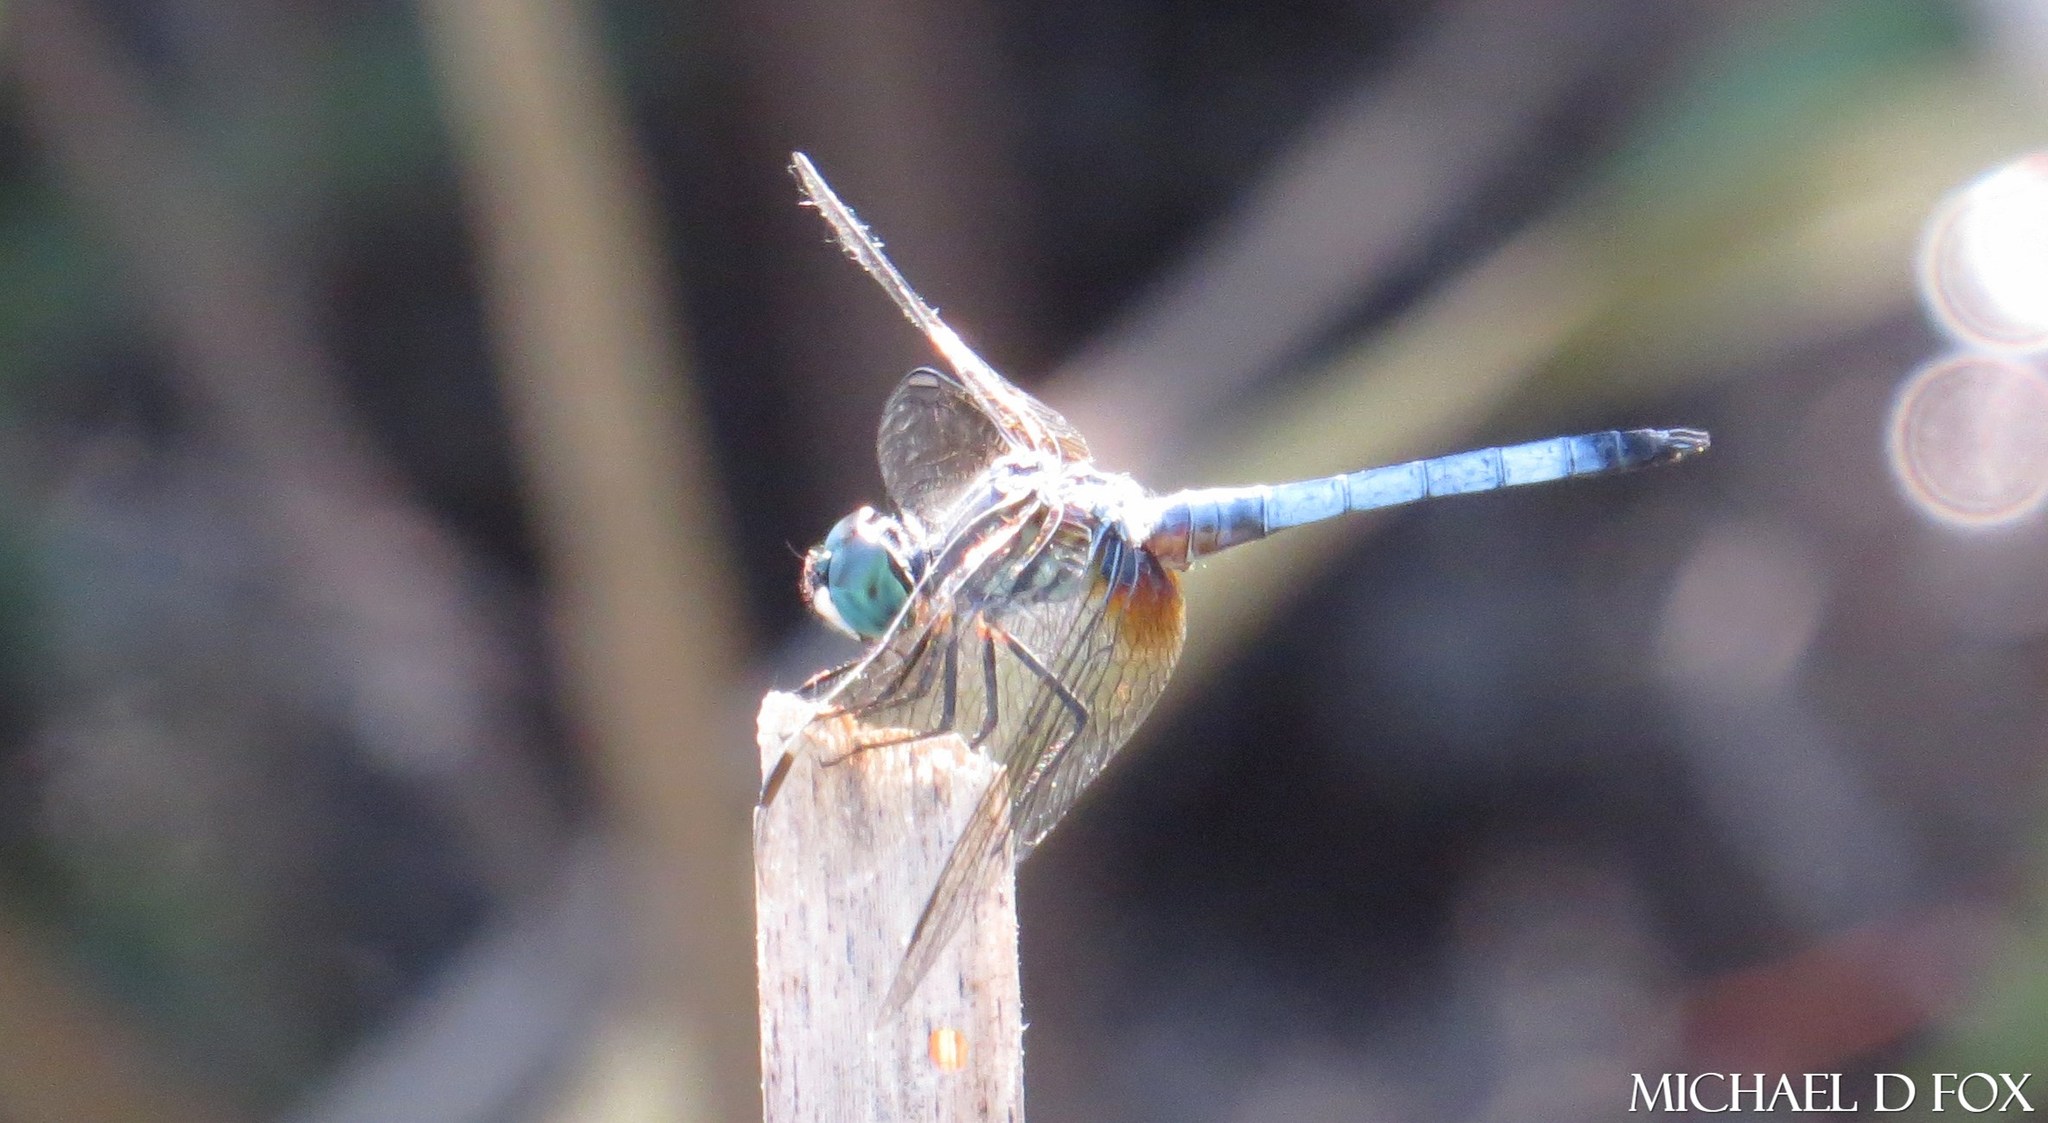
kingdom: Animalia
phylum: Arthropoda
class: Insecta
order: Odonata
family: Libellulidae
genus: Pachydiplax
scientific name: Pachydiplax longipennis
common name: Blue dasher
